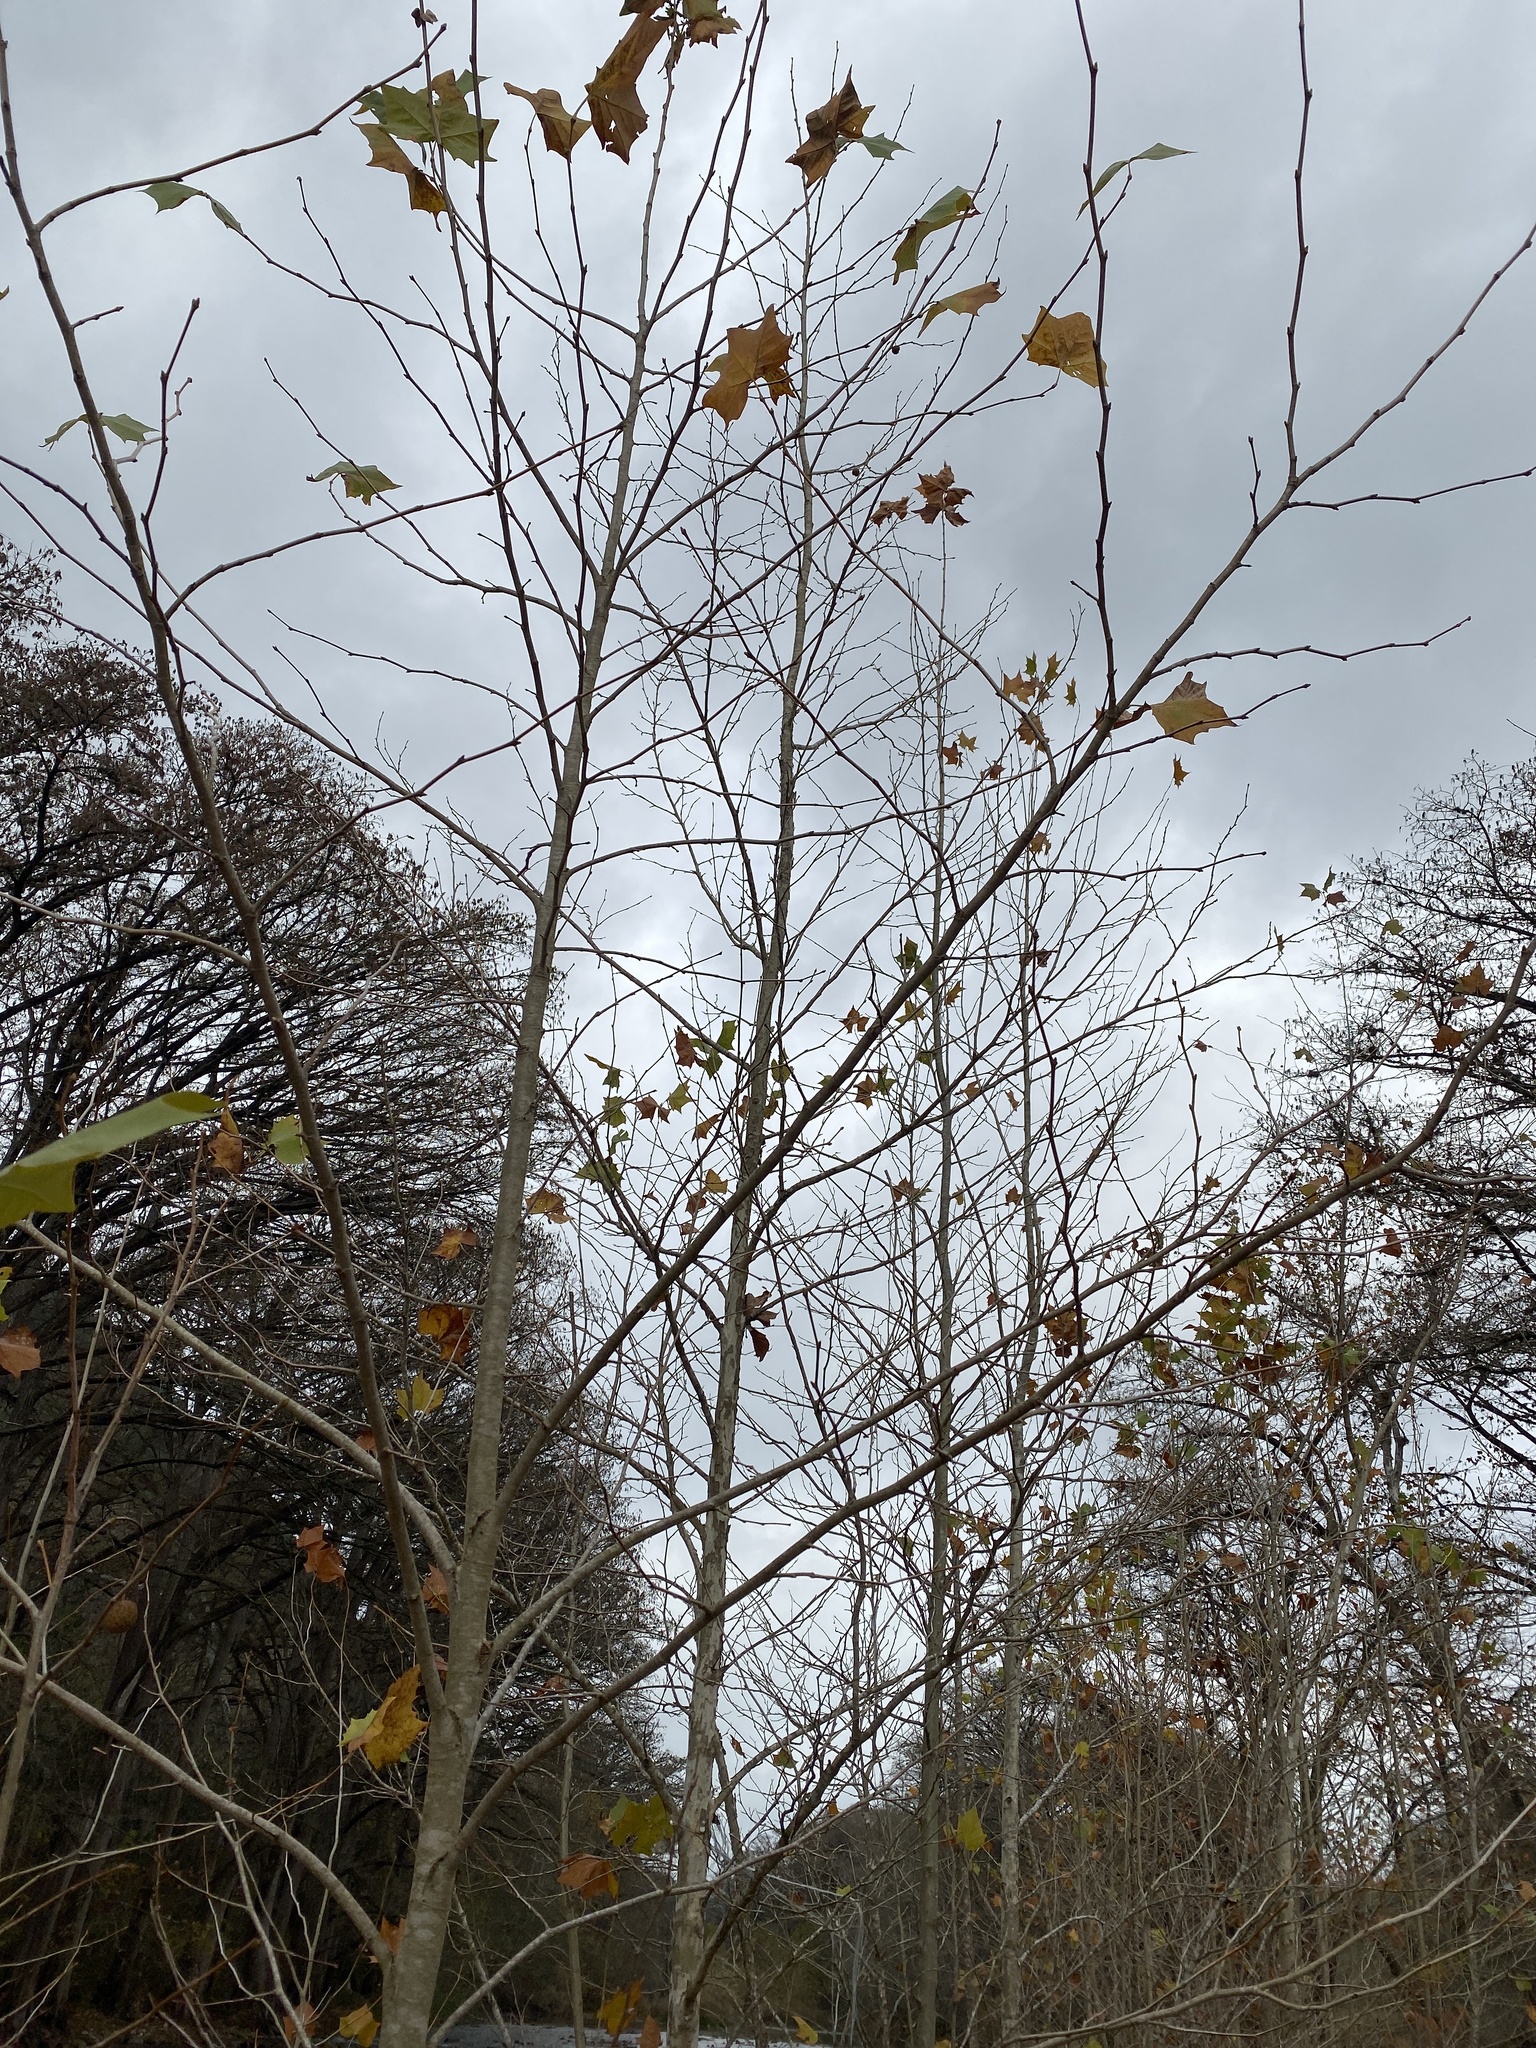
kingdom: Plantae
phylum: Tracheophyta
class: Magnoliopsida
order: Proteales
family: Platanaceae
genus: Platanus
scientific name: Platanus occidentalis
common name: American sycamore
